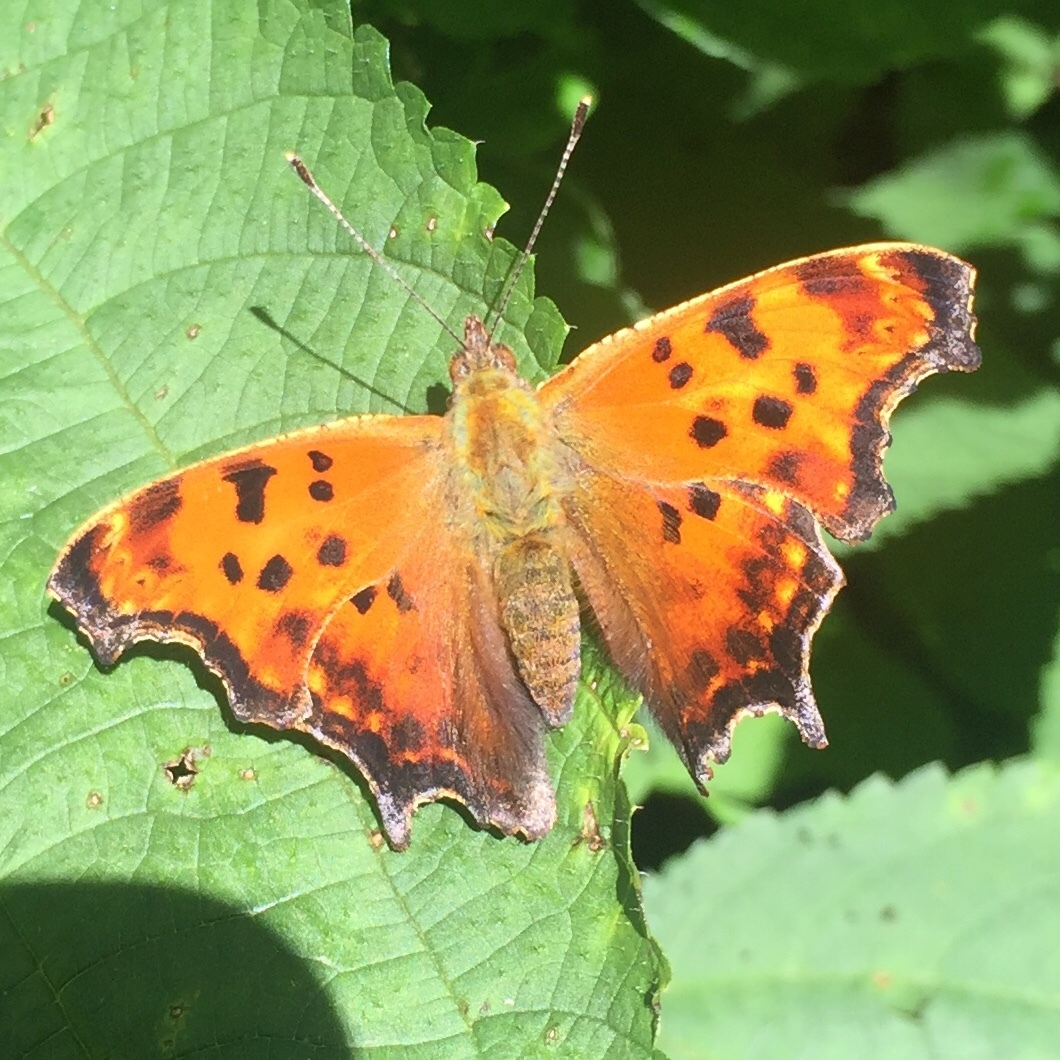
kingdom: Animalia
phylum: Arthropoda
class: Insecta
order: Lepidoptera
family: Nymphalidae
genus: Polygonia
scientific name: Polygonia comma
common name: Eastern comma
